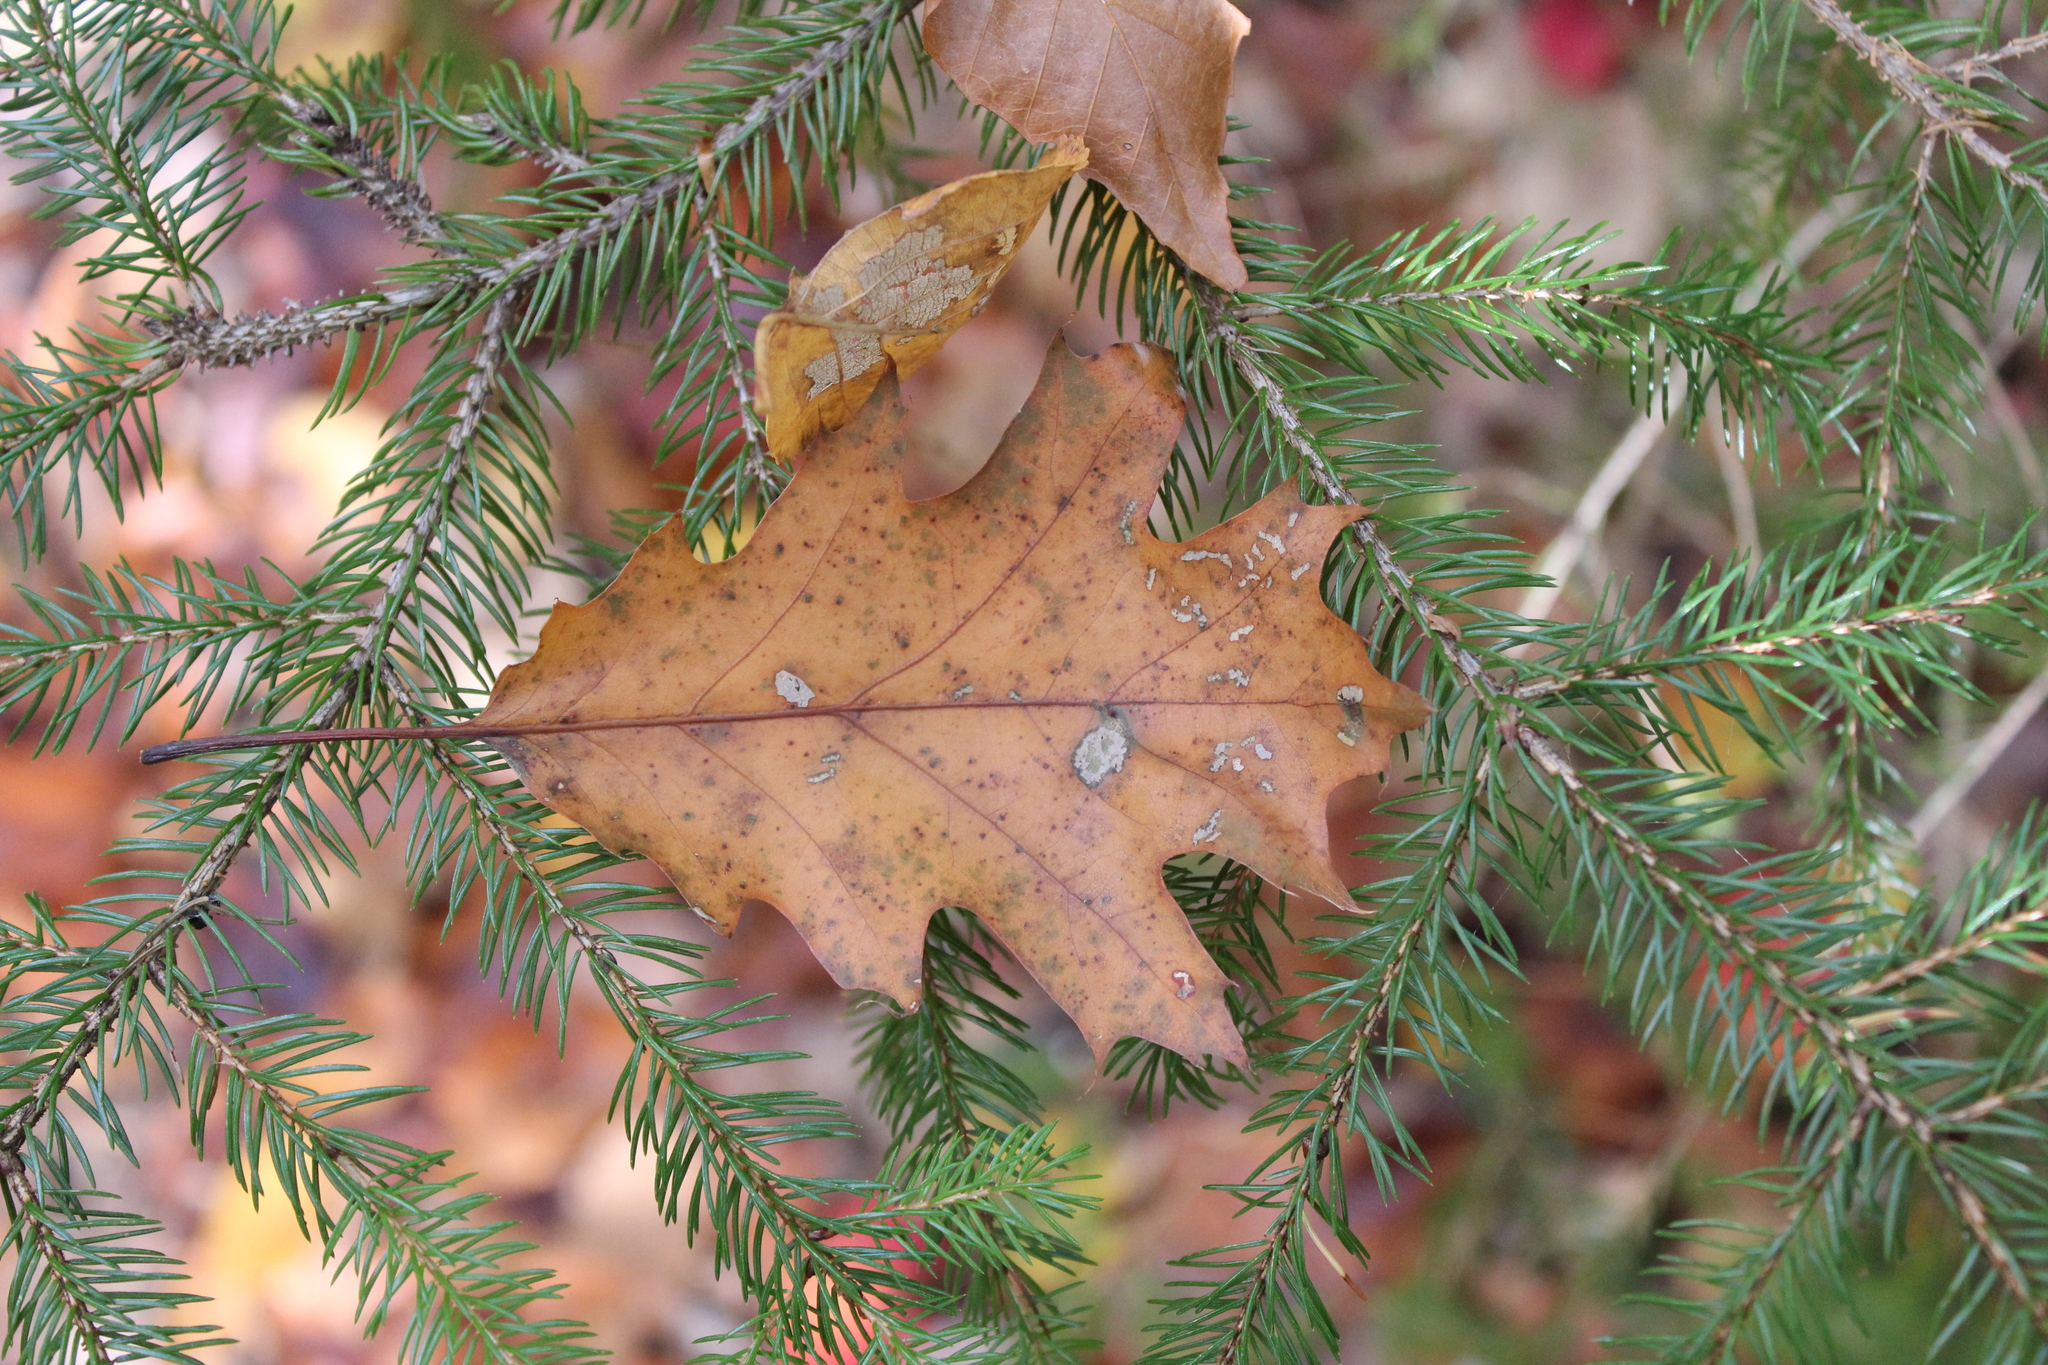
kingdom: Plantae
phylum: Tracheophyta
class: Magnoliopsida
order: Fagales
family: Fagaceae
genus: Quercus
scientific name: Quercus rubra
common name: Red oak
